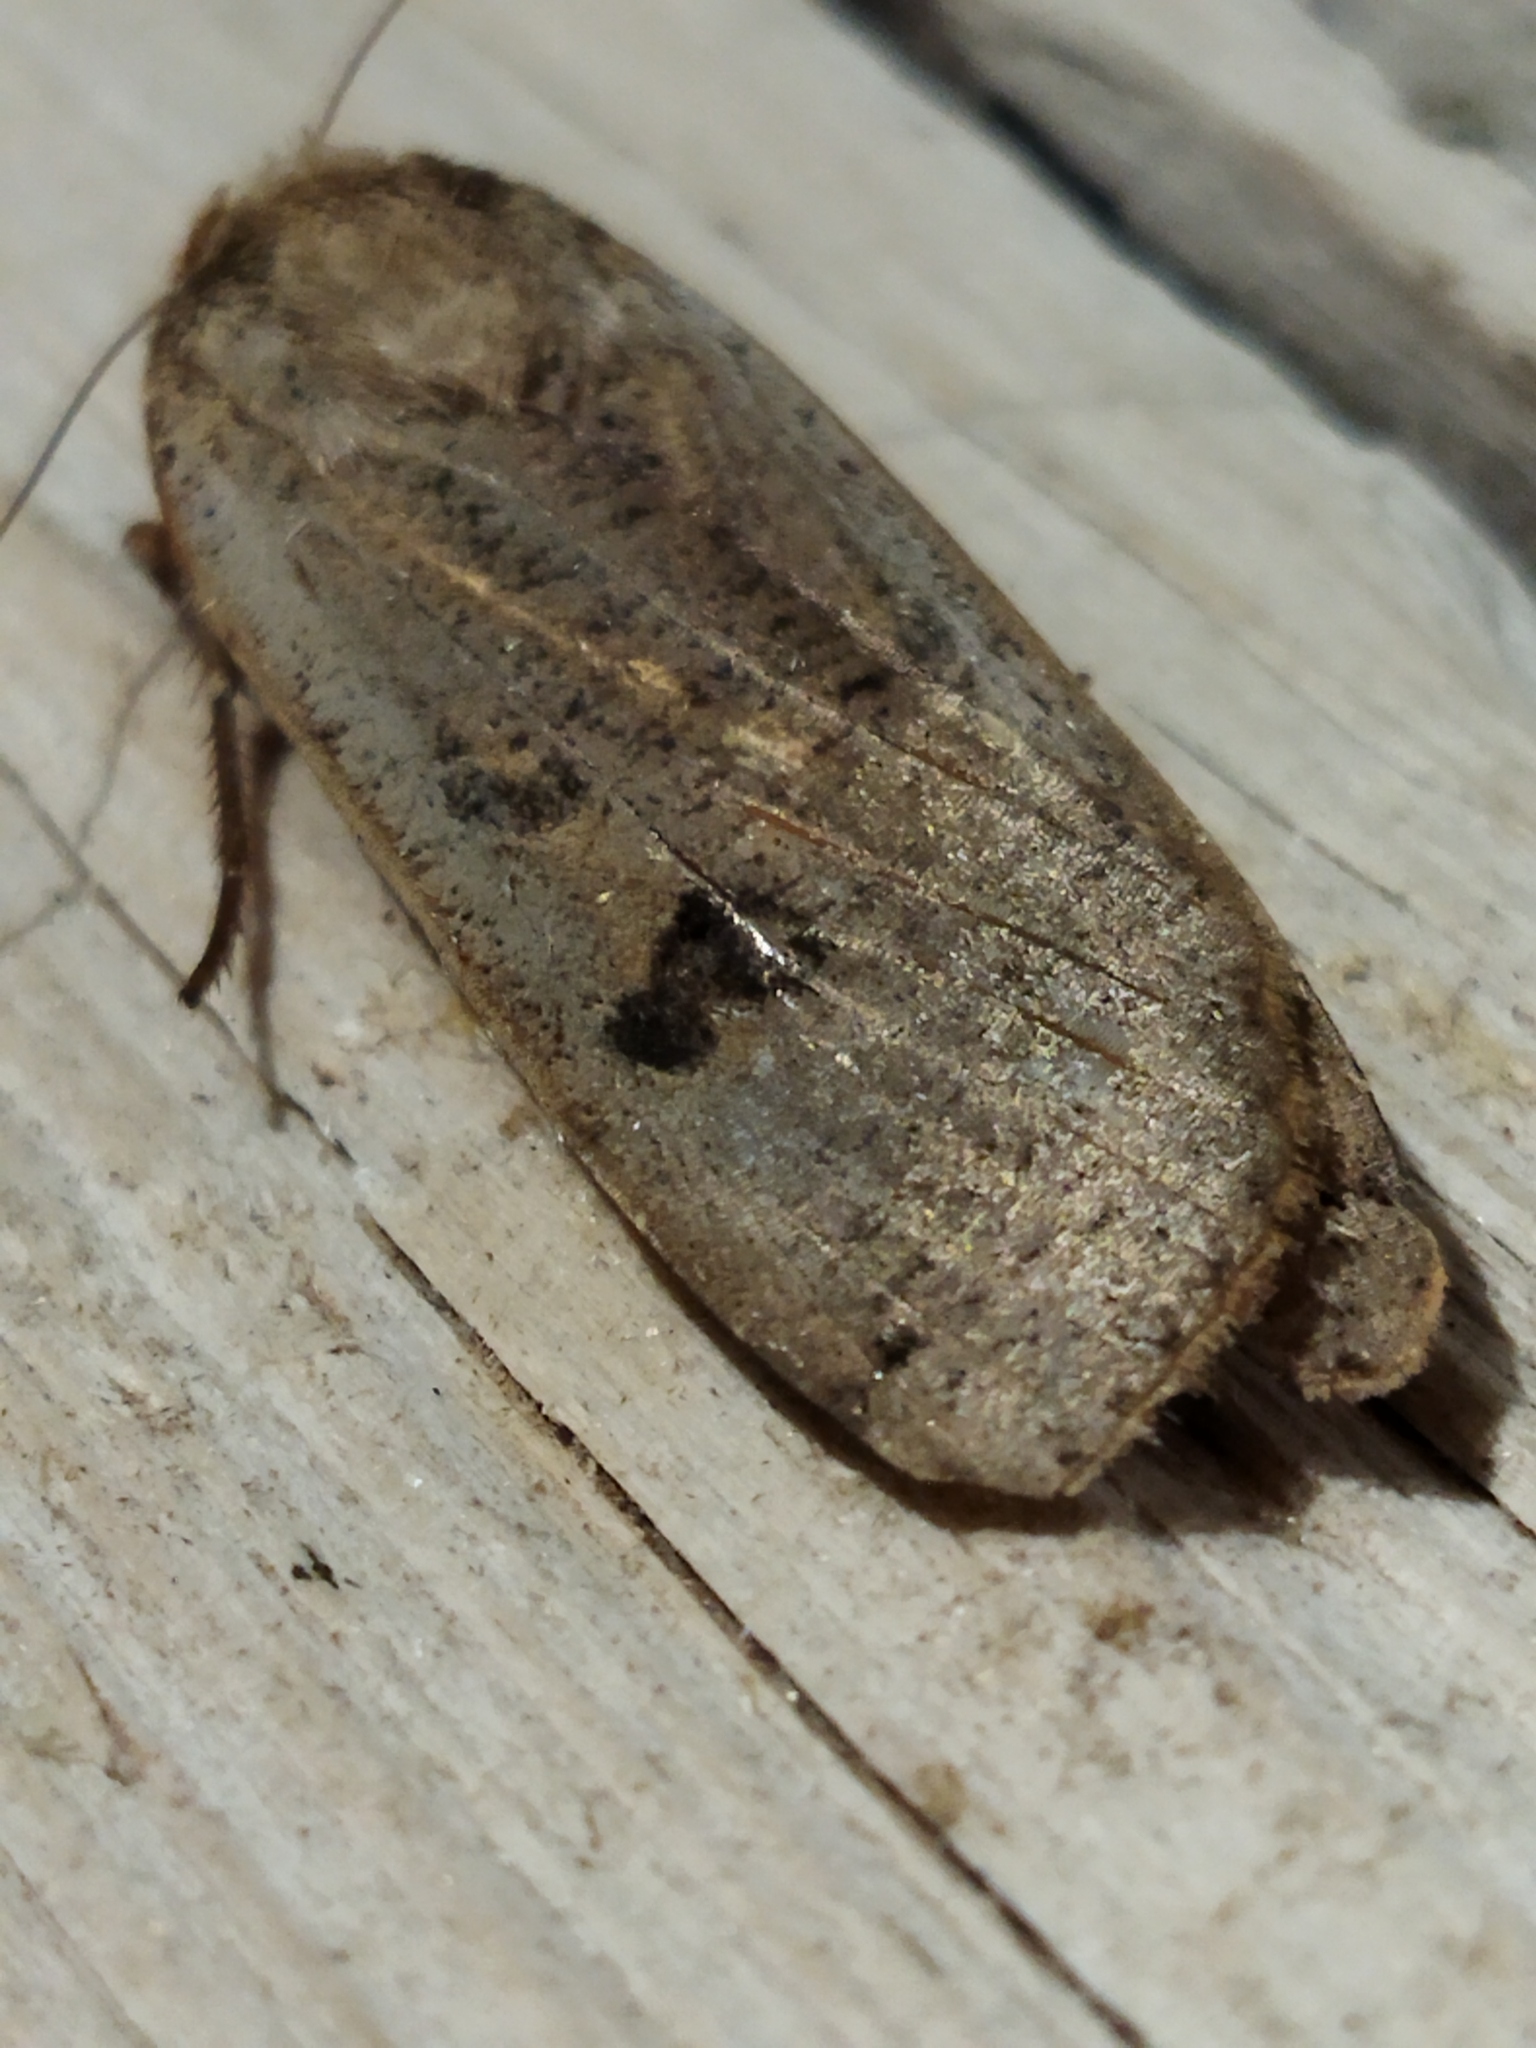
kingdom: Animalia
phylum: Arthropoda
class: Insecta
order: Lepidoptera
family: Noctuidae
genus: Noctua
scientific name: Noctua pronuba
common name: Large yellow underwing
